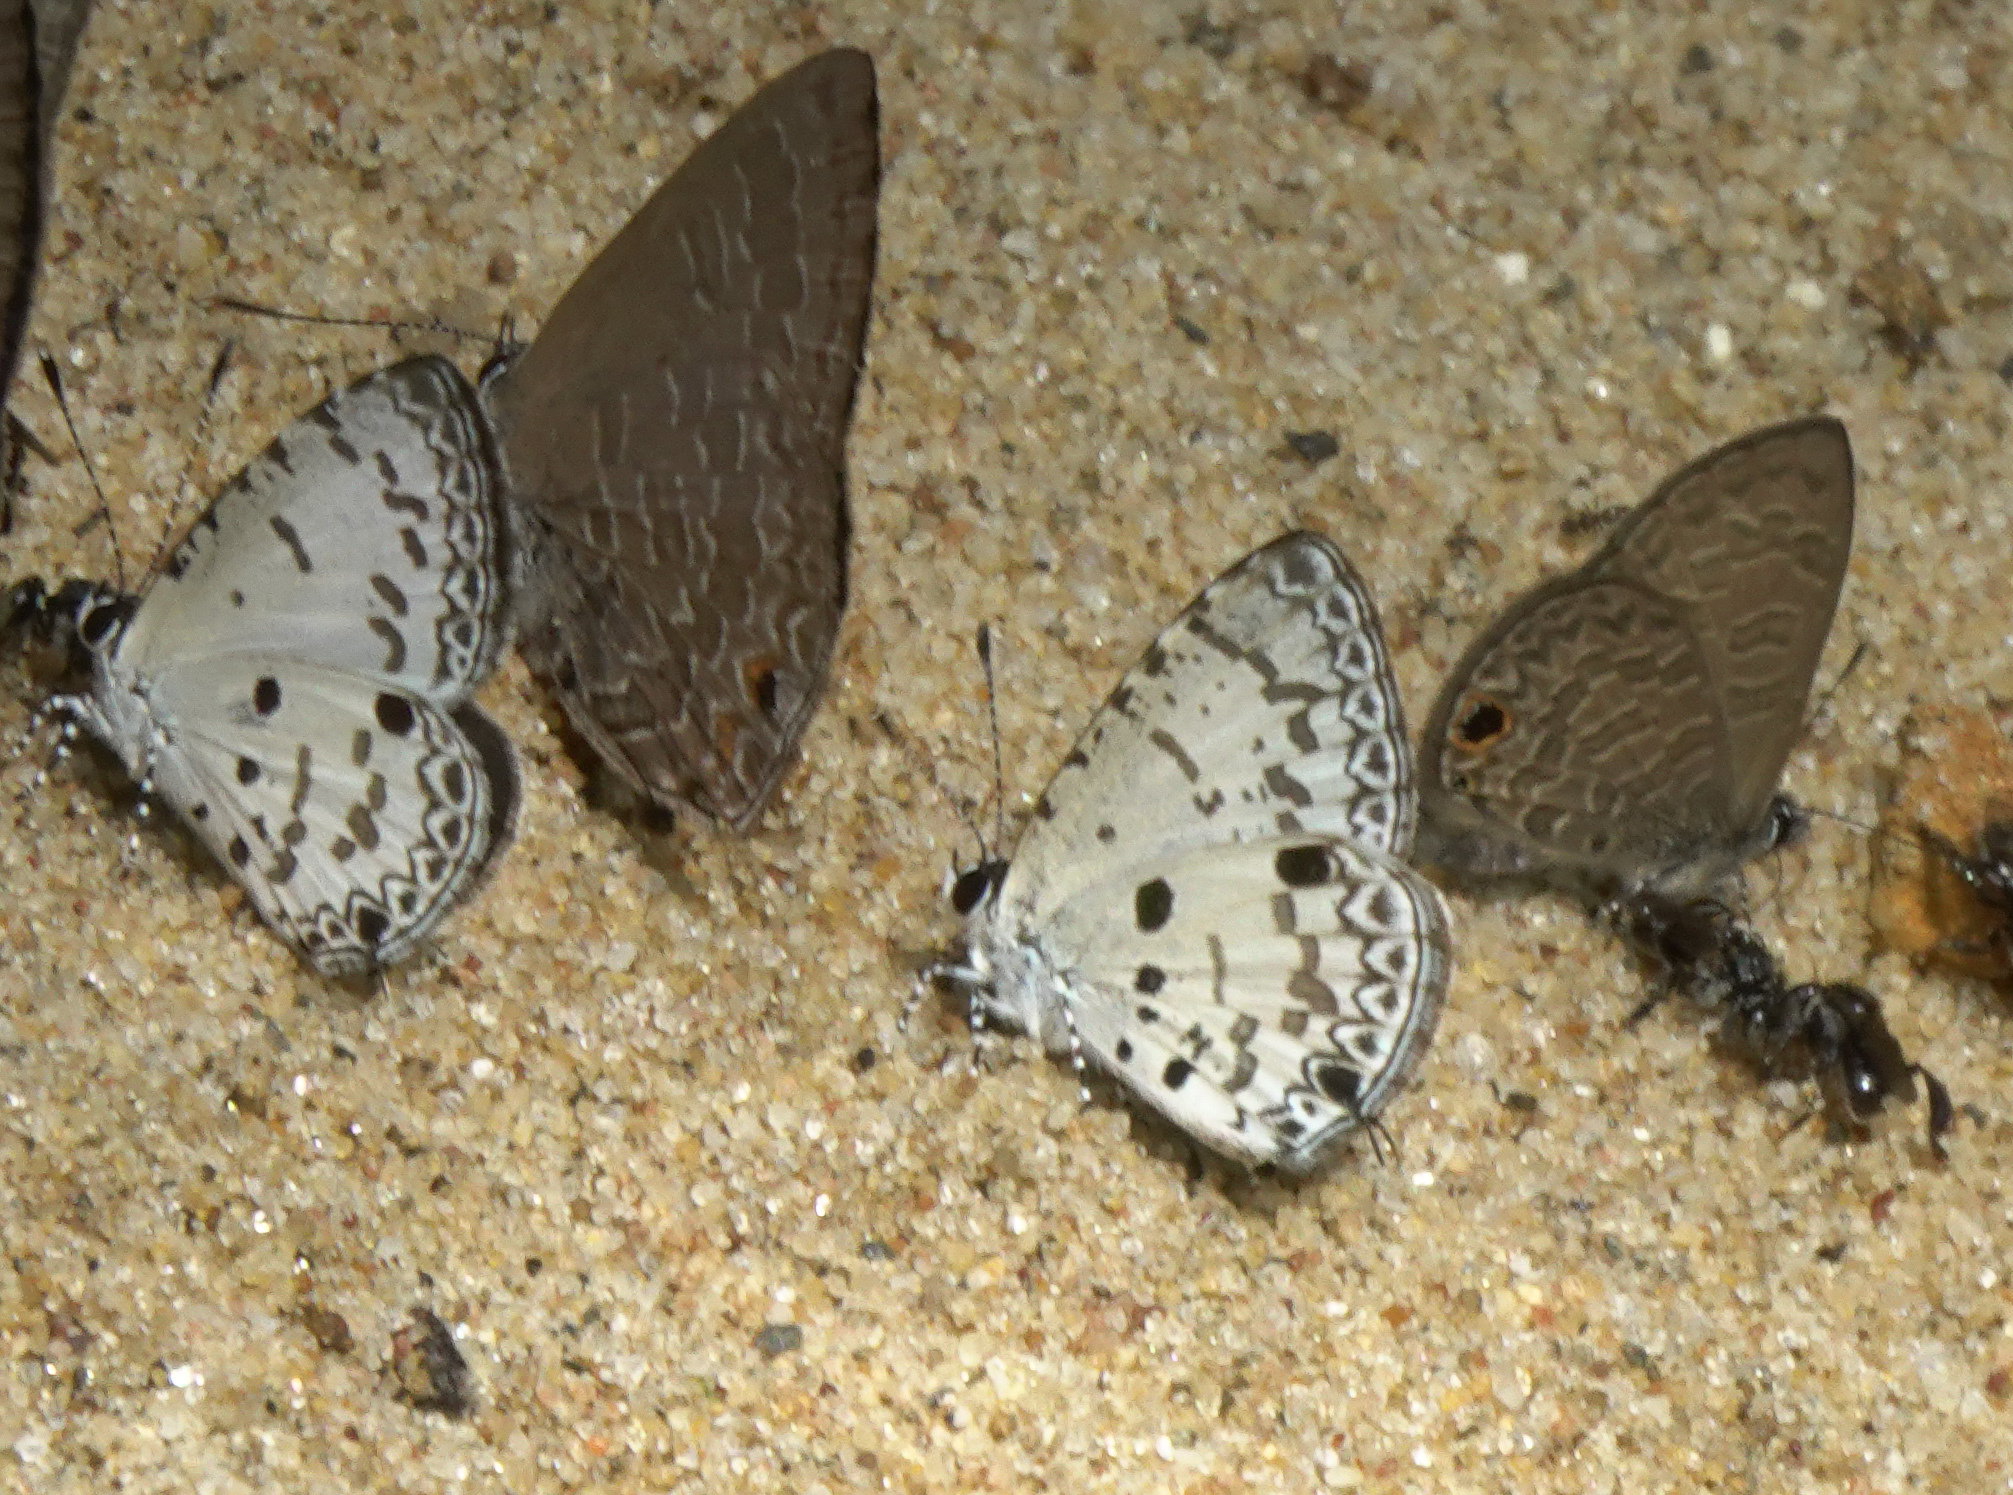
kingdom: Animalia
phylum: Arthropoda
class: Insecta
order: Lepidoptera
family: Lycaenidae
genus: Megisba
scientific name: Megisba malaya
